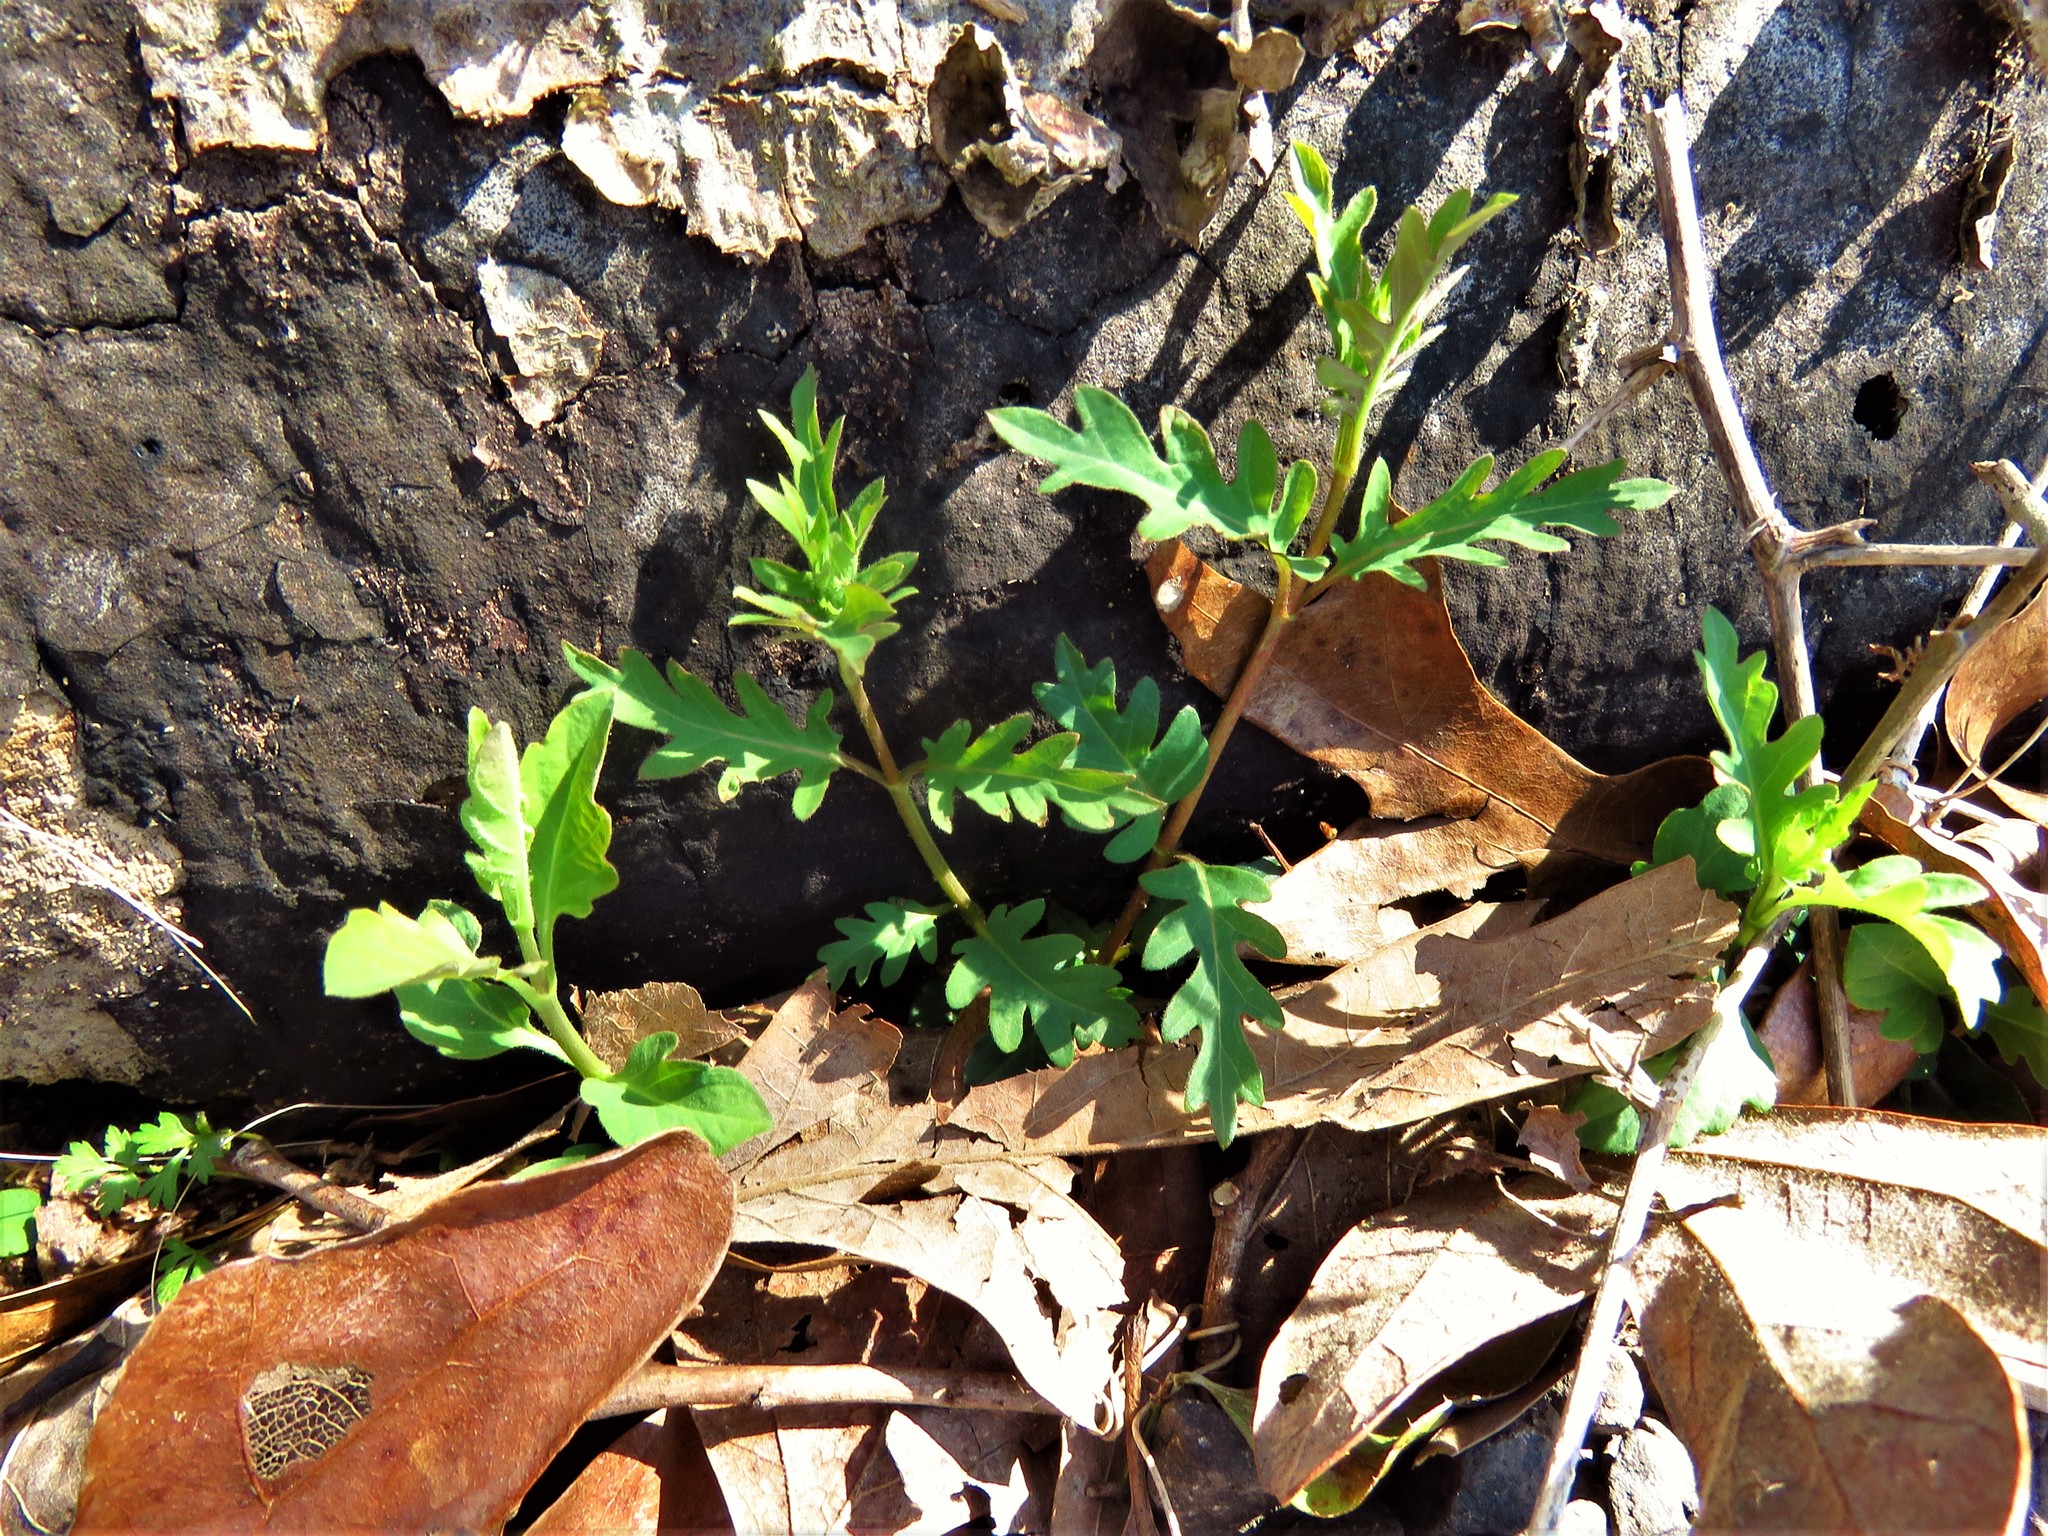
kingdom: Plantae
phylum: Tracheophyta
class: Magnoliopsida
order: Dipsacales
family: Caprifoliaceae
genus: Lonicera
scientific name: Lonicera japonica
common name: Japanese honeysuckle
